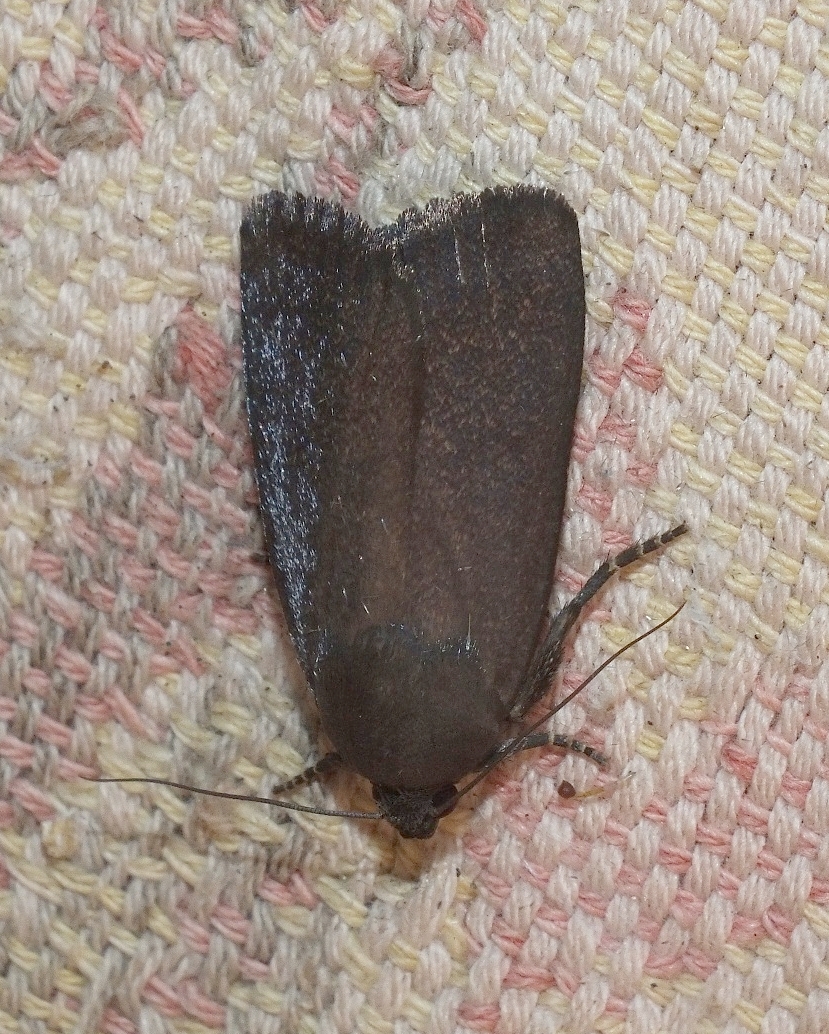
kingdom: Animalia
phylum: Arthropoda
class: Insecta
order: Lepidoptera
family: Noctuidae
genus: Amphipyra
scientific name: Amphipyra livida
